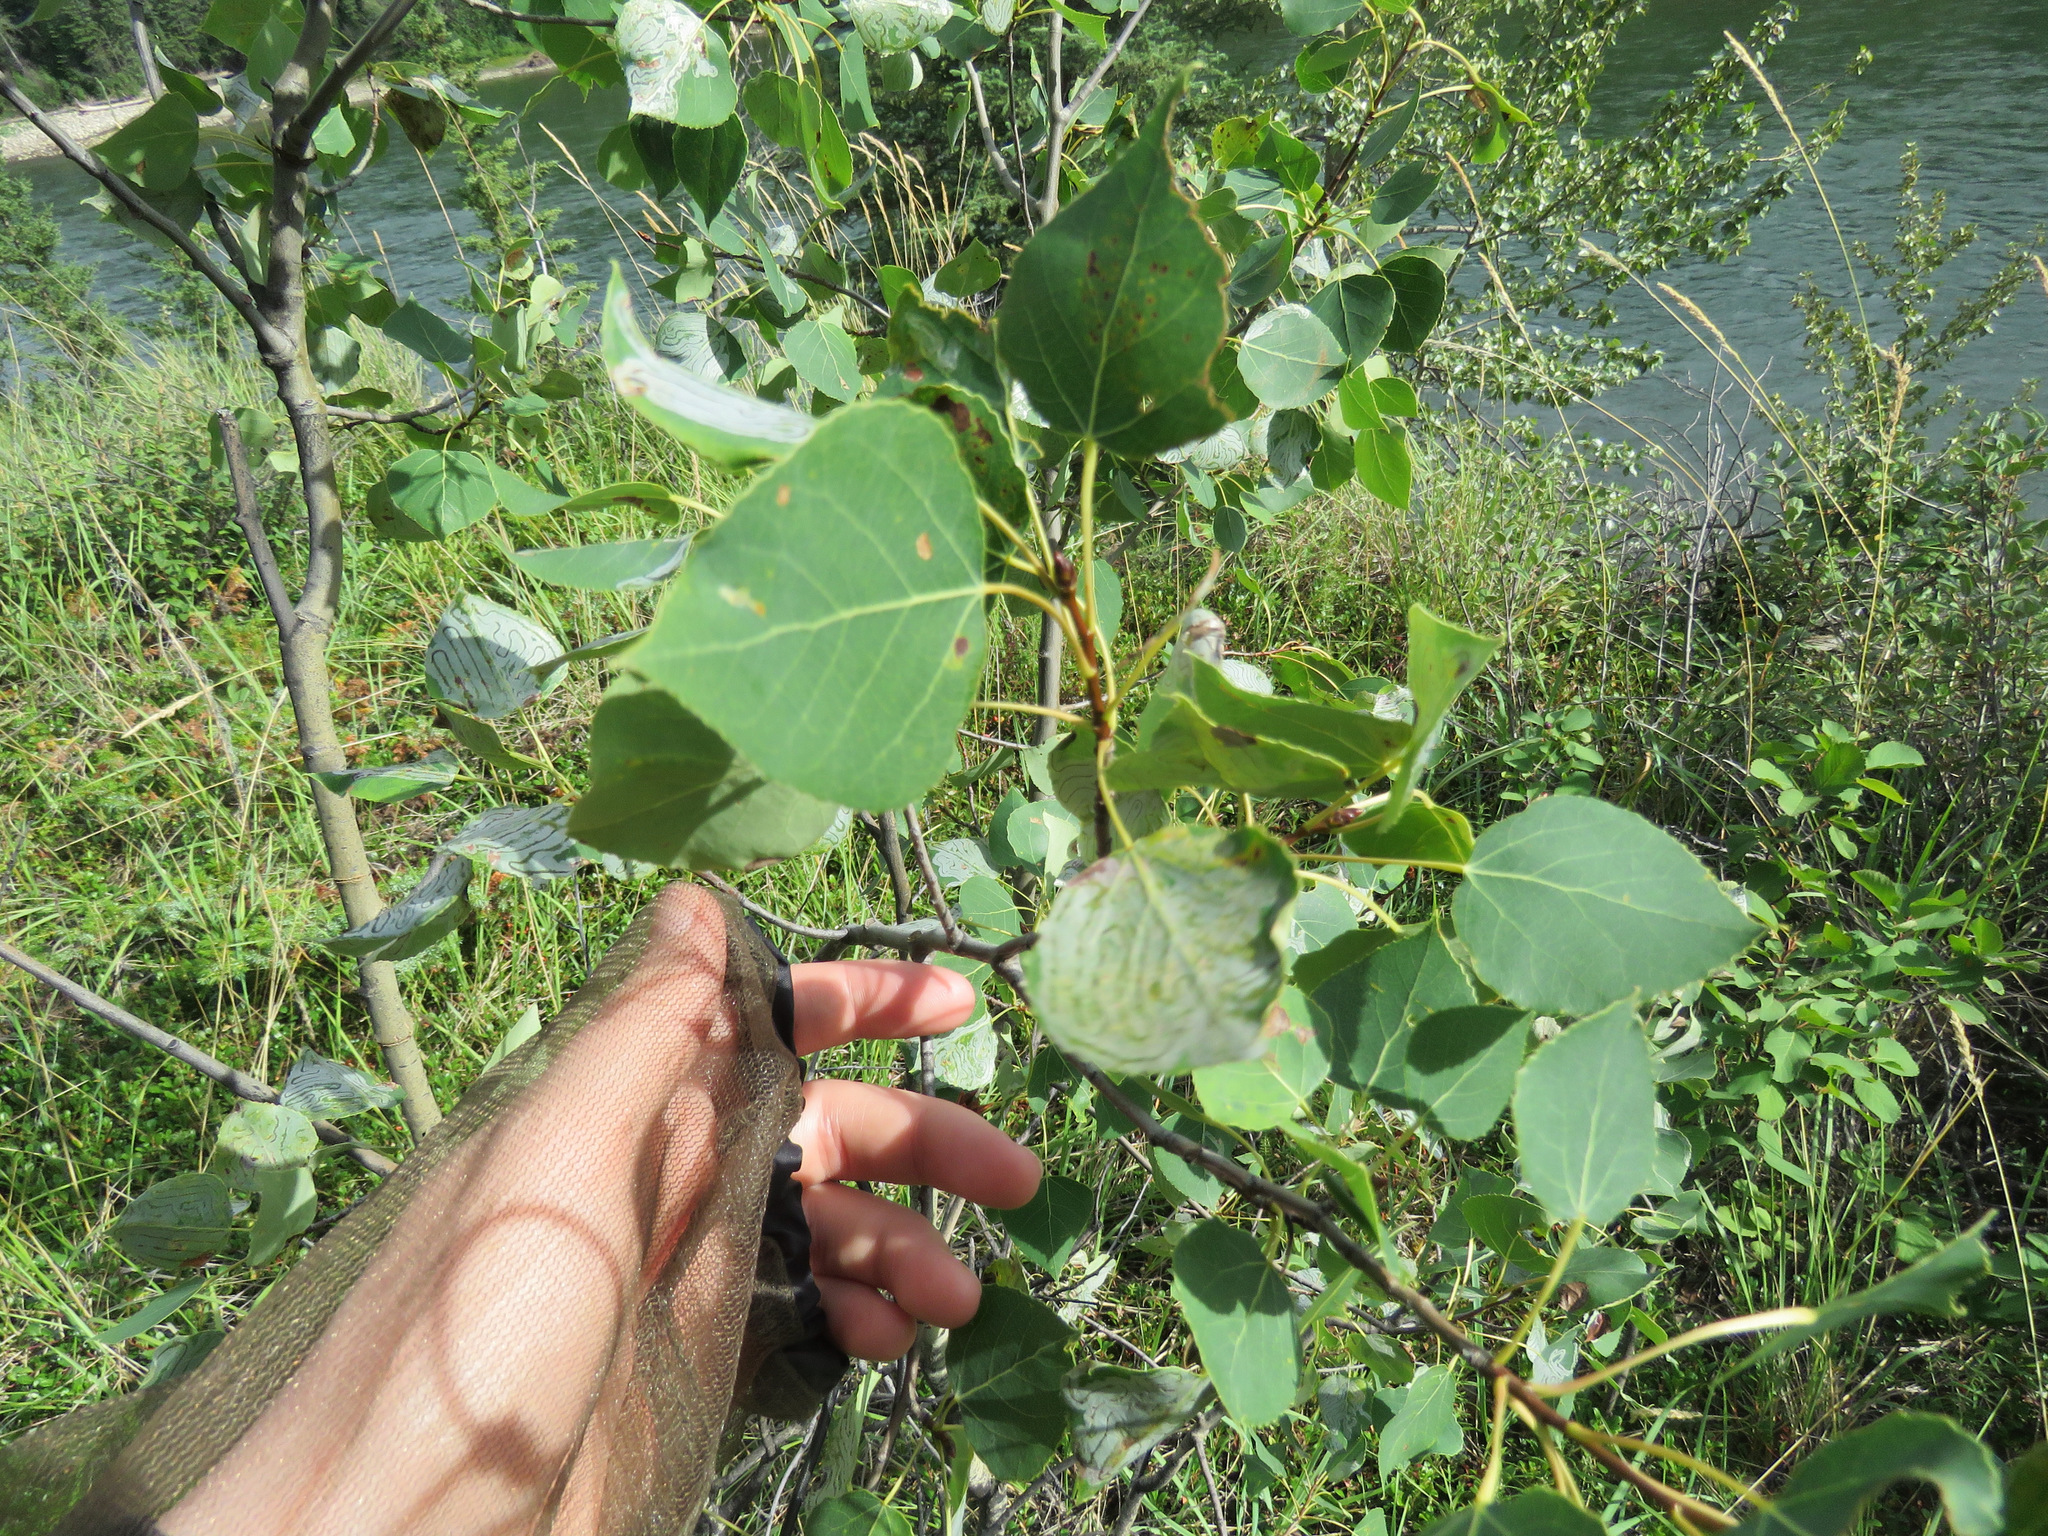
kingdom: Plantae
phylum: Tracheophyta
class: Magnoliopsida
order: Malpighiales
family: Salicaceae
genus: Populus
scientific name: Populus tremuloides
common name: Quaking aspen
